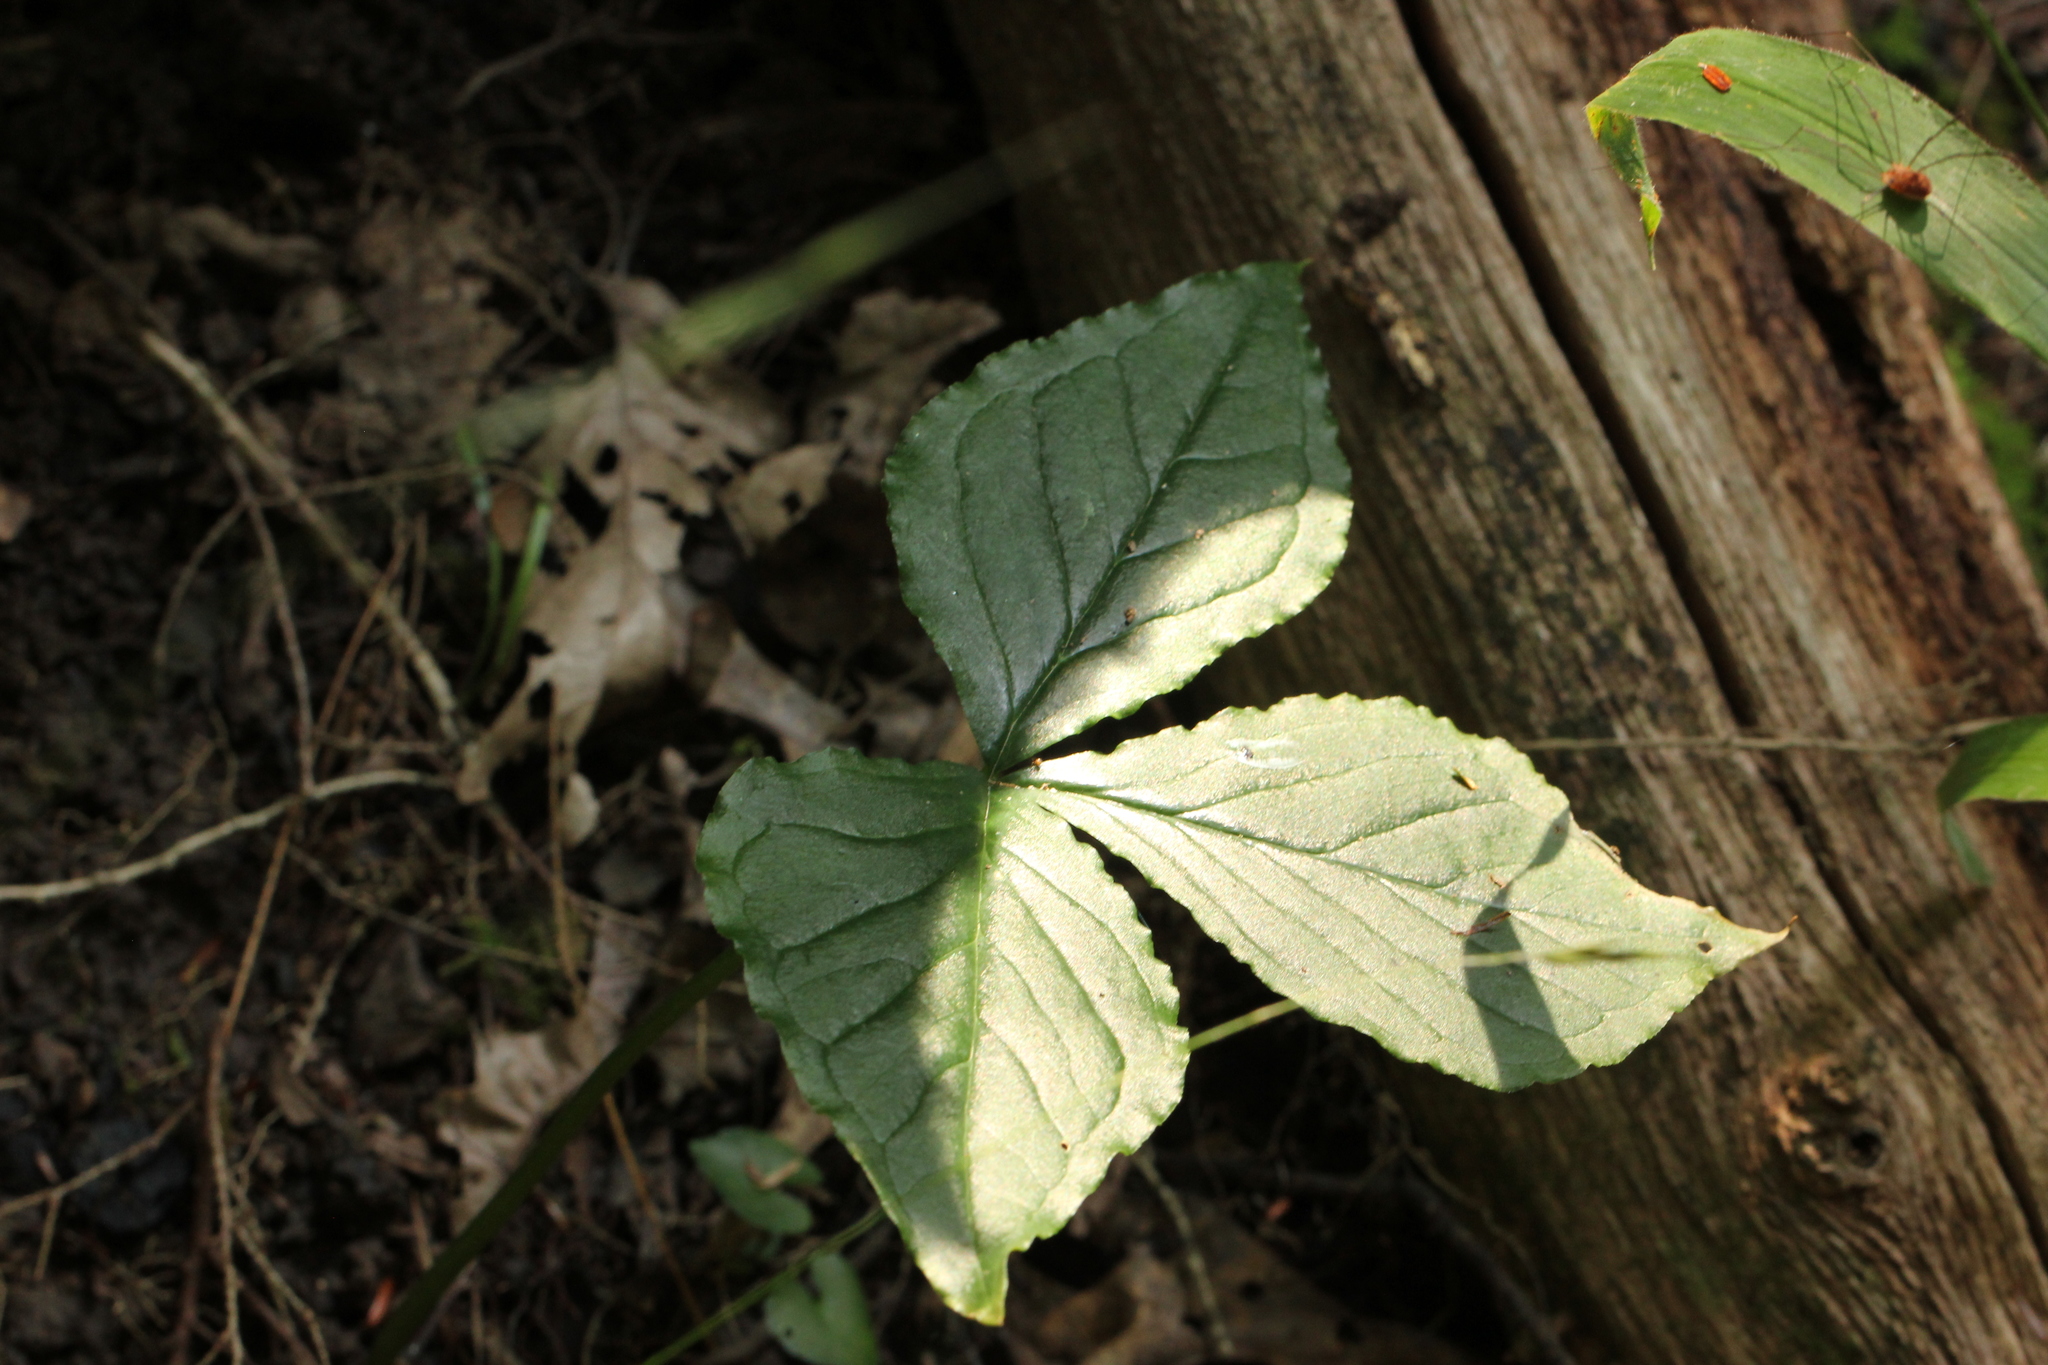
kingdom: Plantae
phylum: Tracheophyta
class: Liliopsida
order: Alismatales
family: Araceae
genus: Arisaema
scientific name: Arisaema triphyllum
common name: Jack-in-the-pulpit
